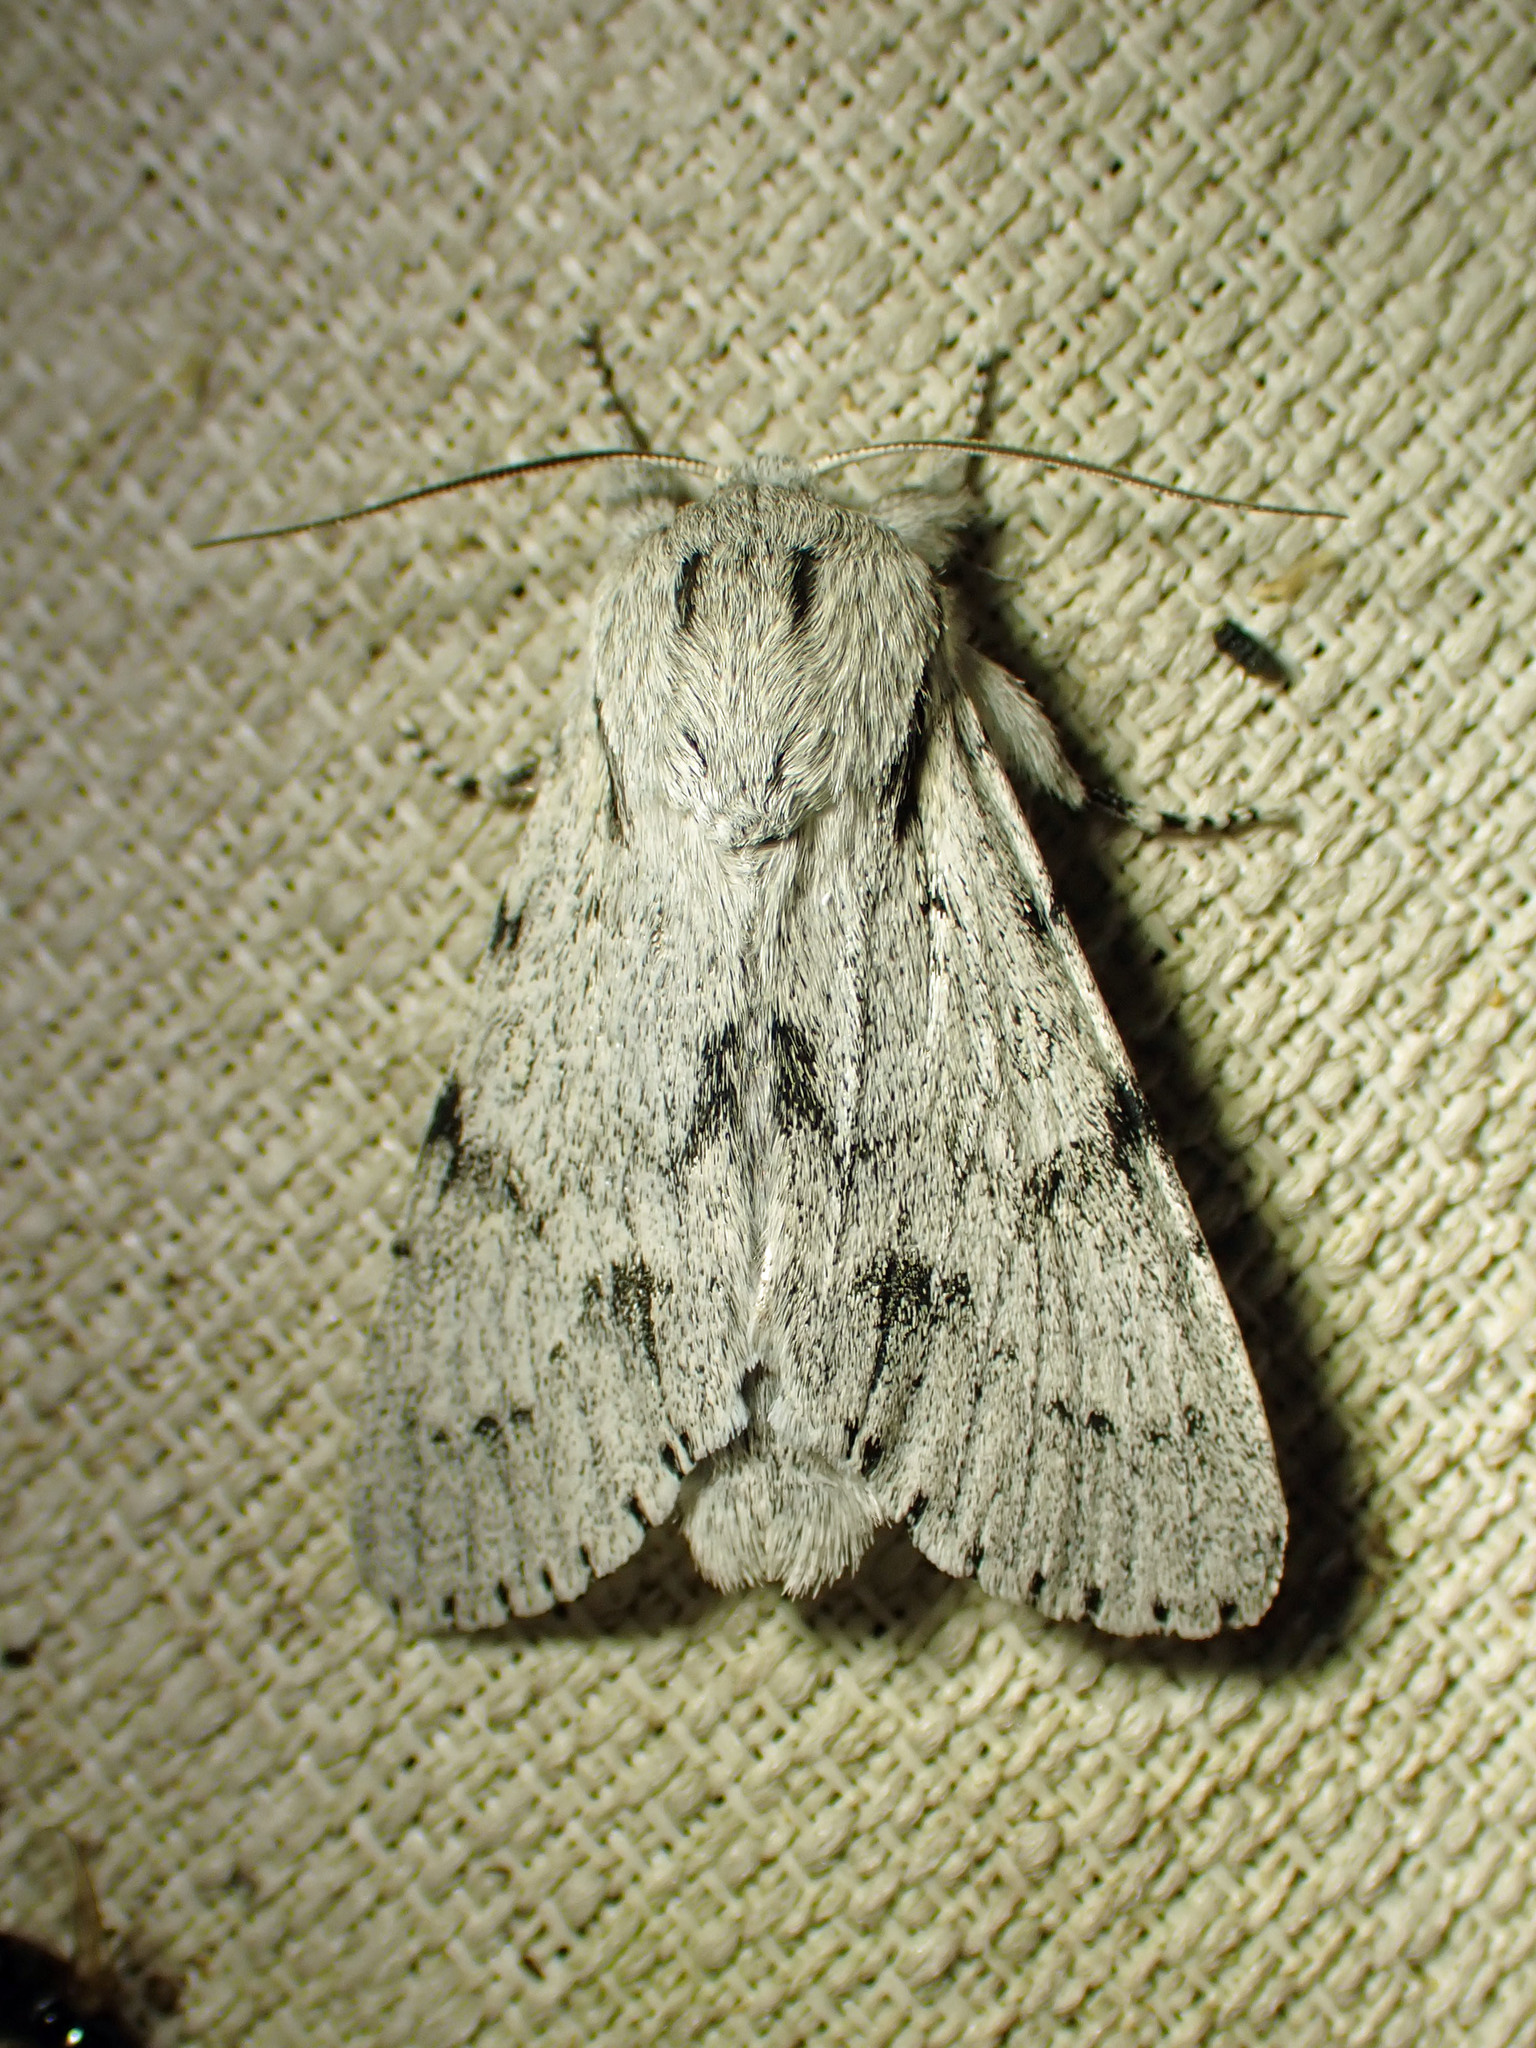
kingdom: Animalia
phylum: Arthropoda
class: Insecta
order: Lepidoptera
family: Noctuidae
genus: Acronicta
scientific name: Acronicta lepusculina
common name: Cottonwood dagger
